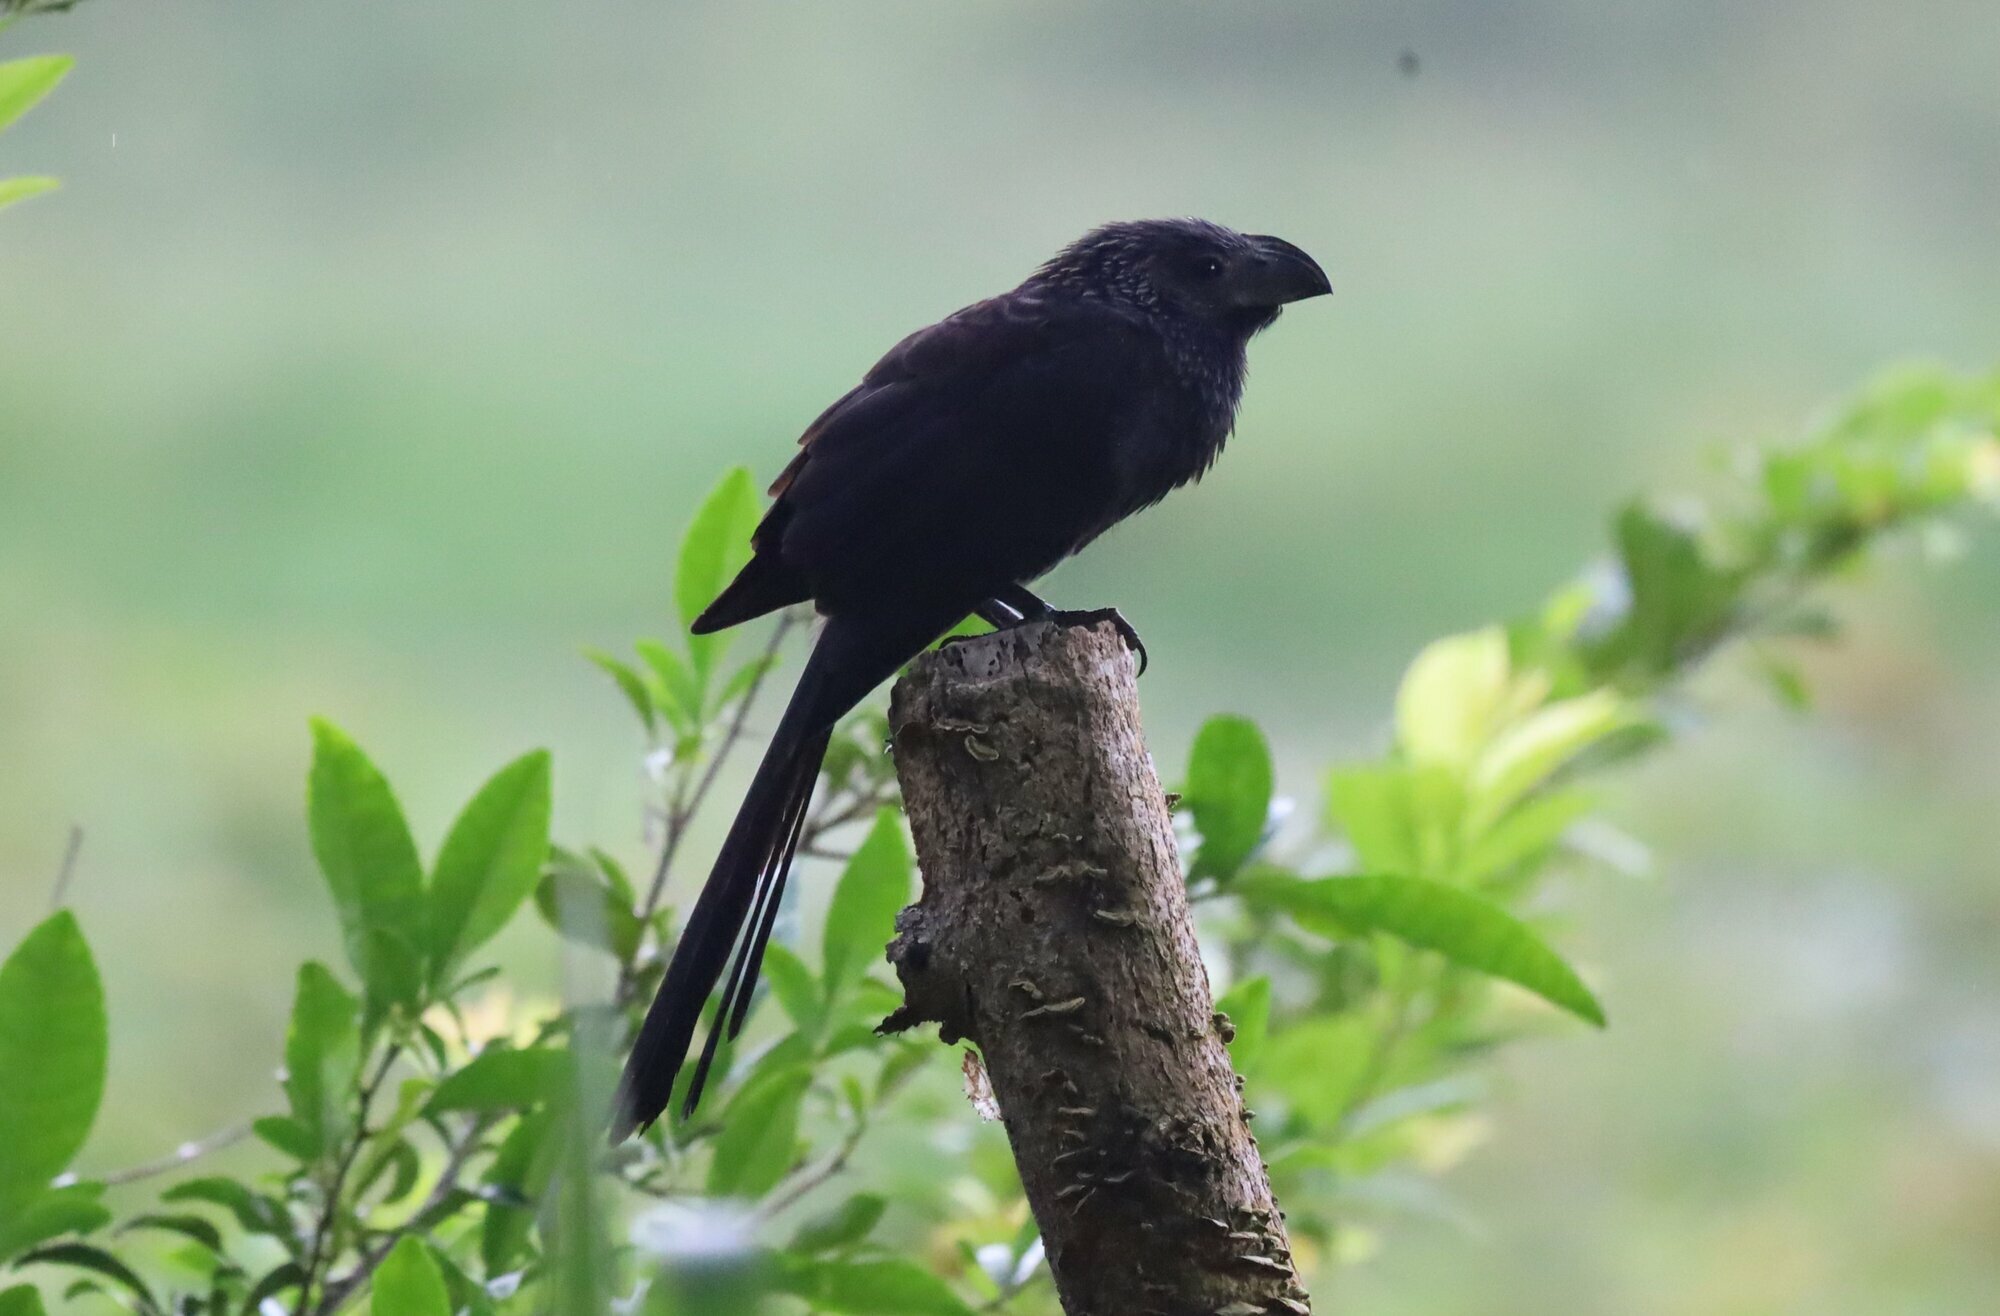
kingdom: Animalia
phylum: Chordata
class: Aves
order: Cuculiformes
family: Cuculidae
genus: Crotophaga
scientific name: Crotophaga sulcirostris
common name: Groove-billed ani
